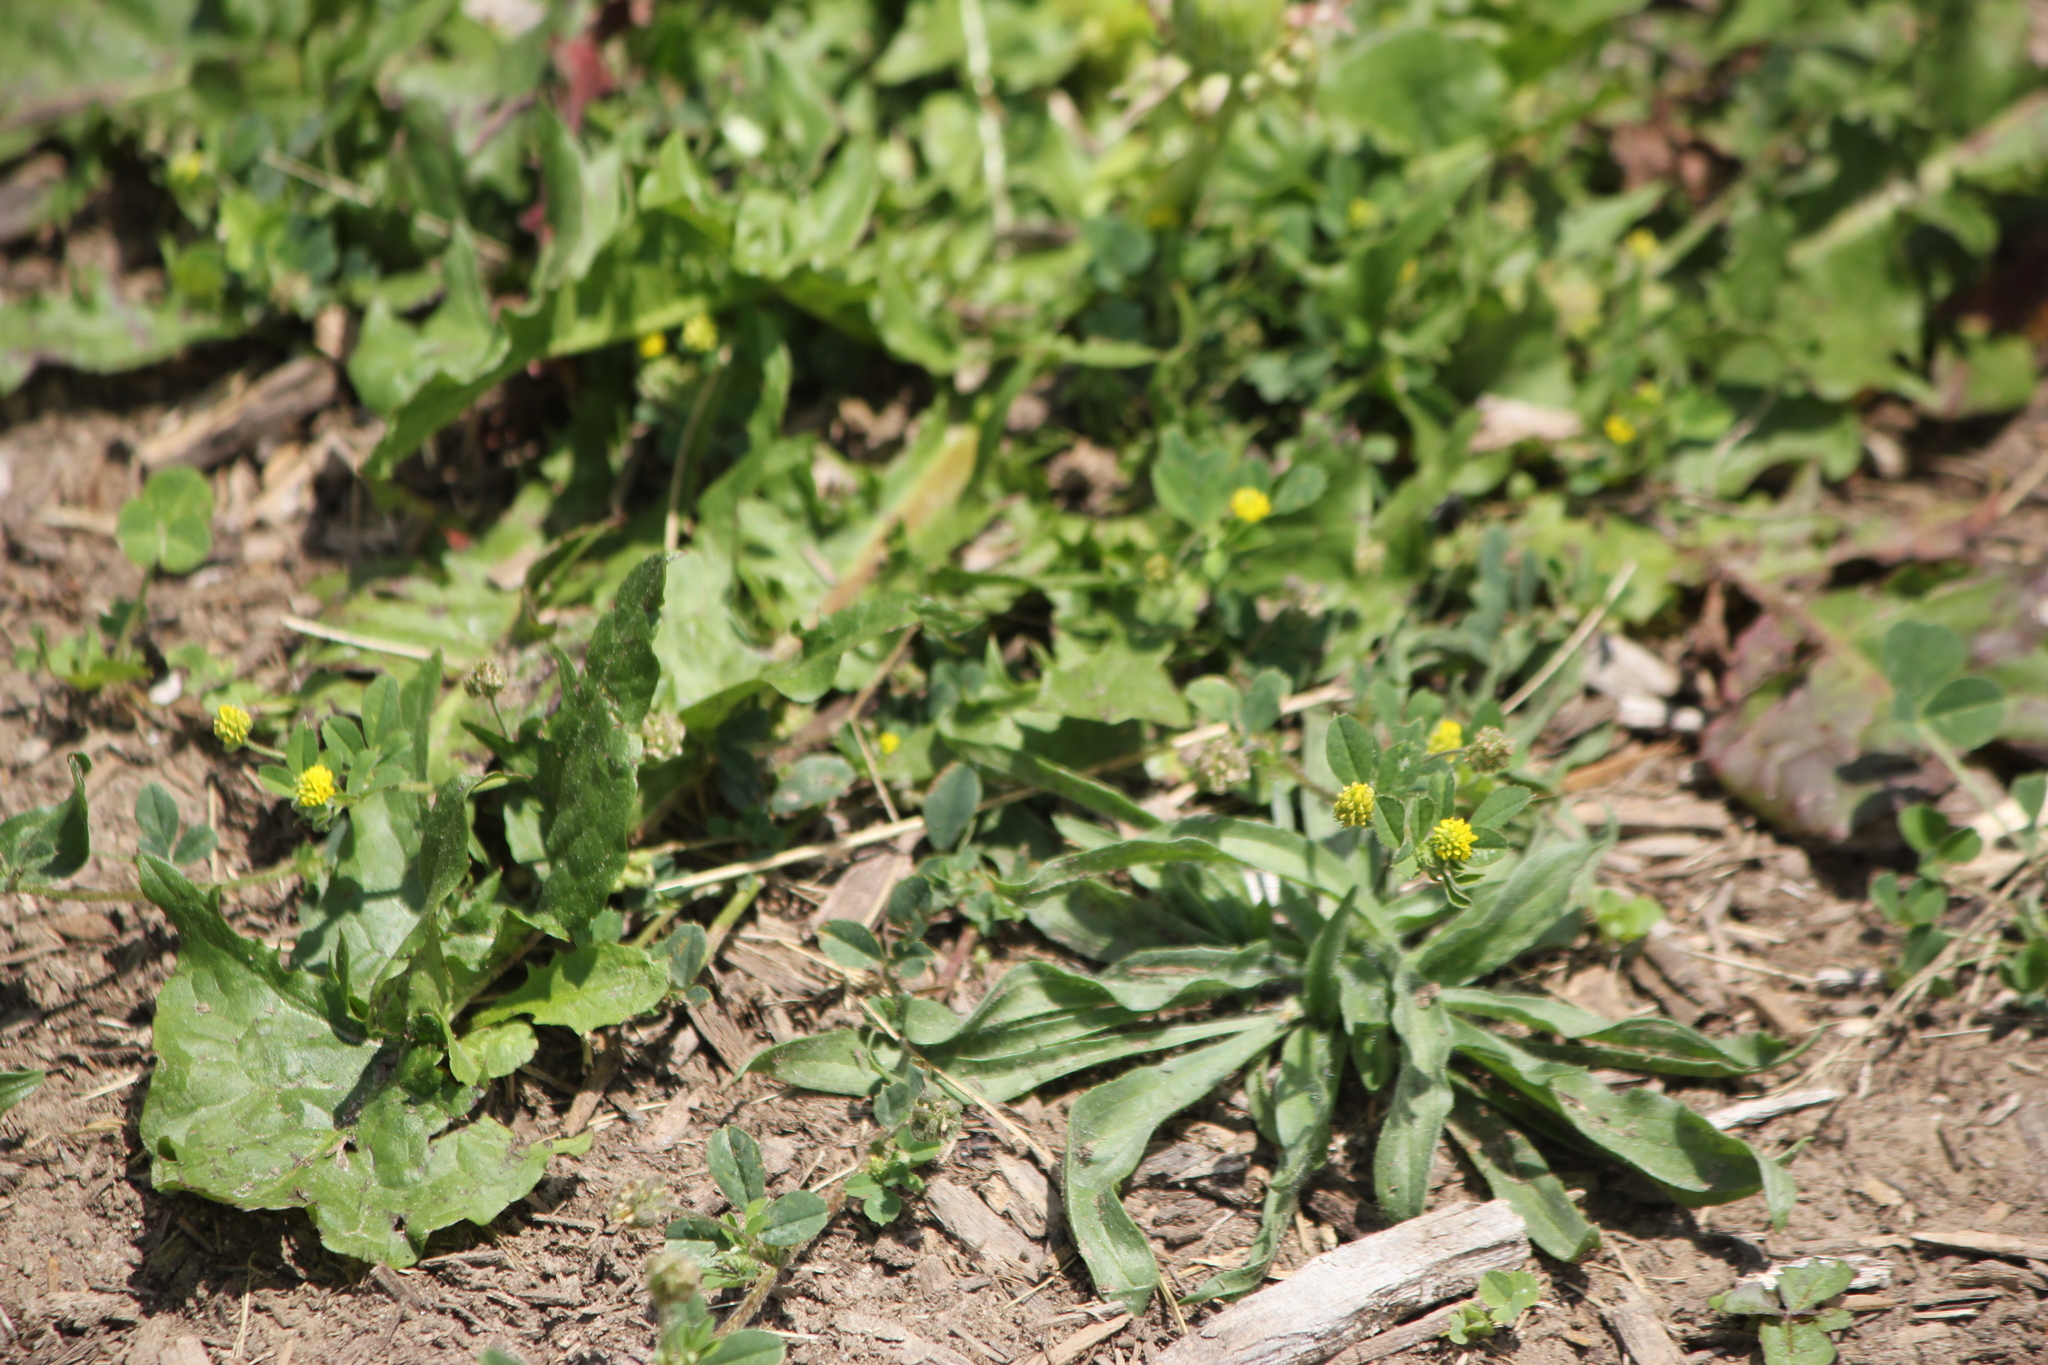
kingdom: Plantae
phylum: Tracheophyta
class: Magnoliopsida
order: Fabales
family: Fabaceae
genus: Medicago
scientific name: Medicago lupulina
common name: Black medick
